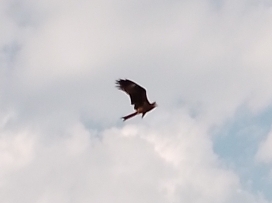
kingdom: Animalia
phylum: Chordata
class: Aves
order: Accipitriformes
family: Accipitridae
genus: Milvus
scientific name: Milvus migrans
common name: Black kite
